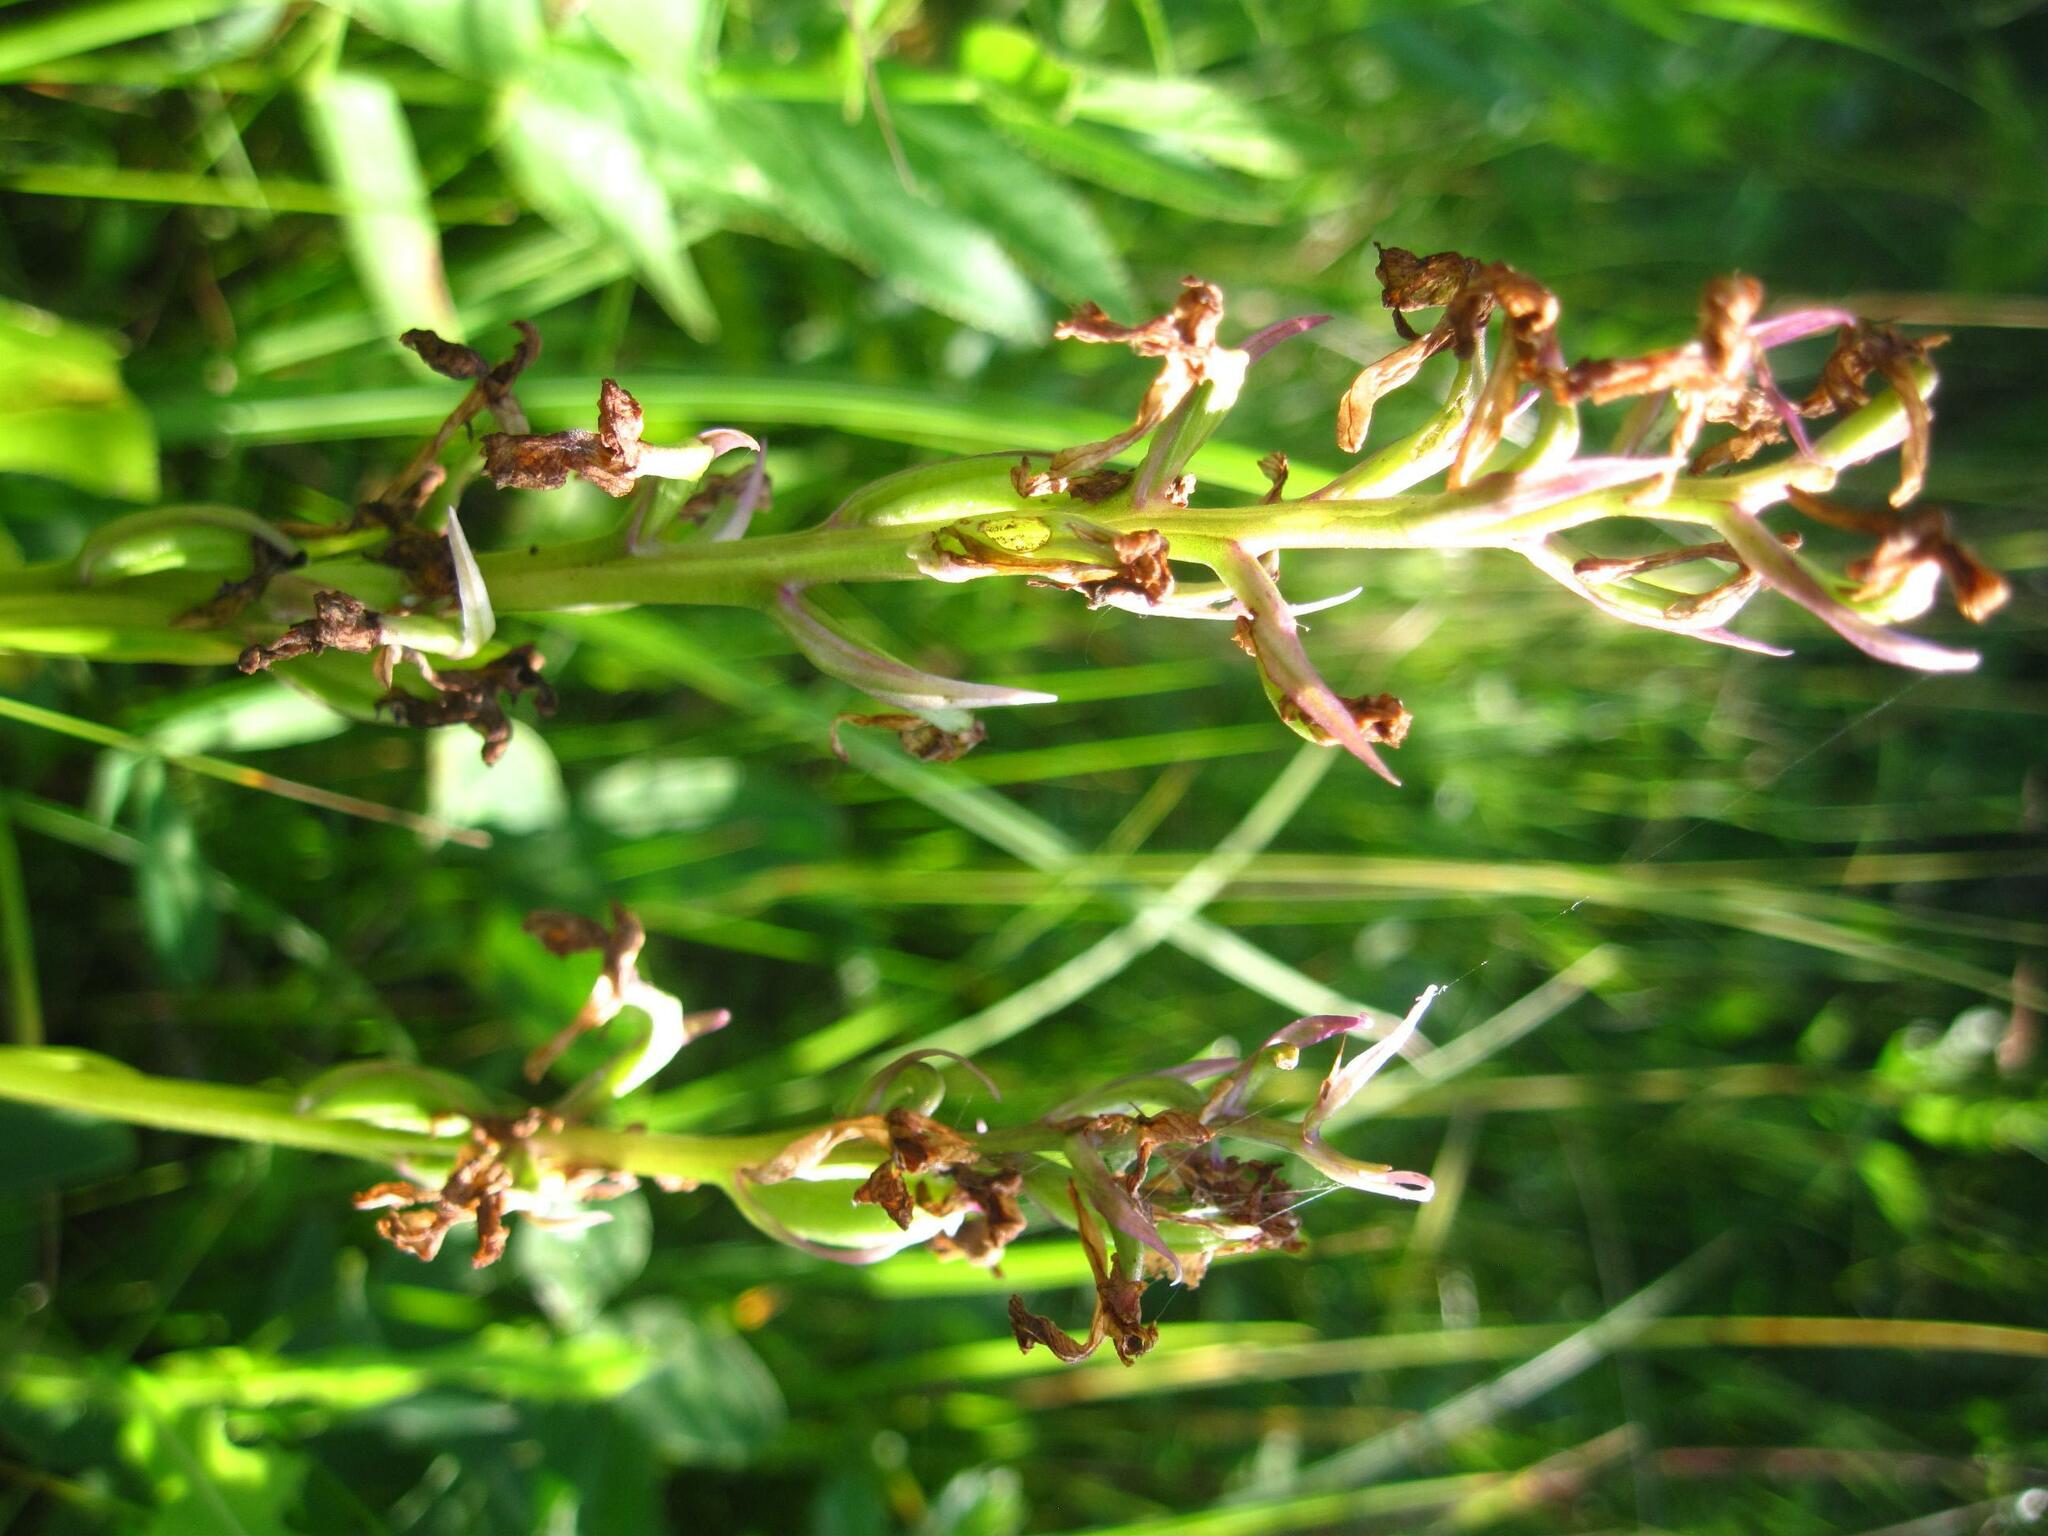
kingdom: Plantae
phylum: Tracheophyta
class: Liliopsida
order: Asparagales
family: Orchidaceae
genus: Anacamptis
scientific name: Anacamptis palustris
